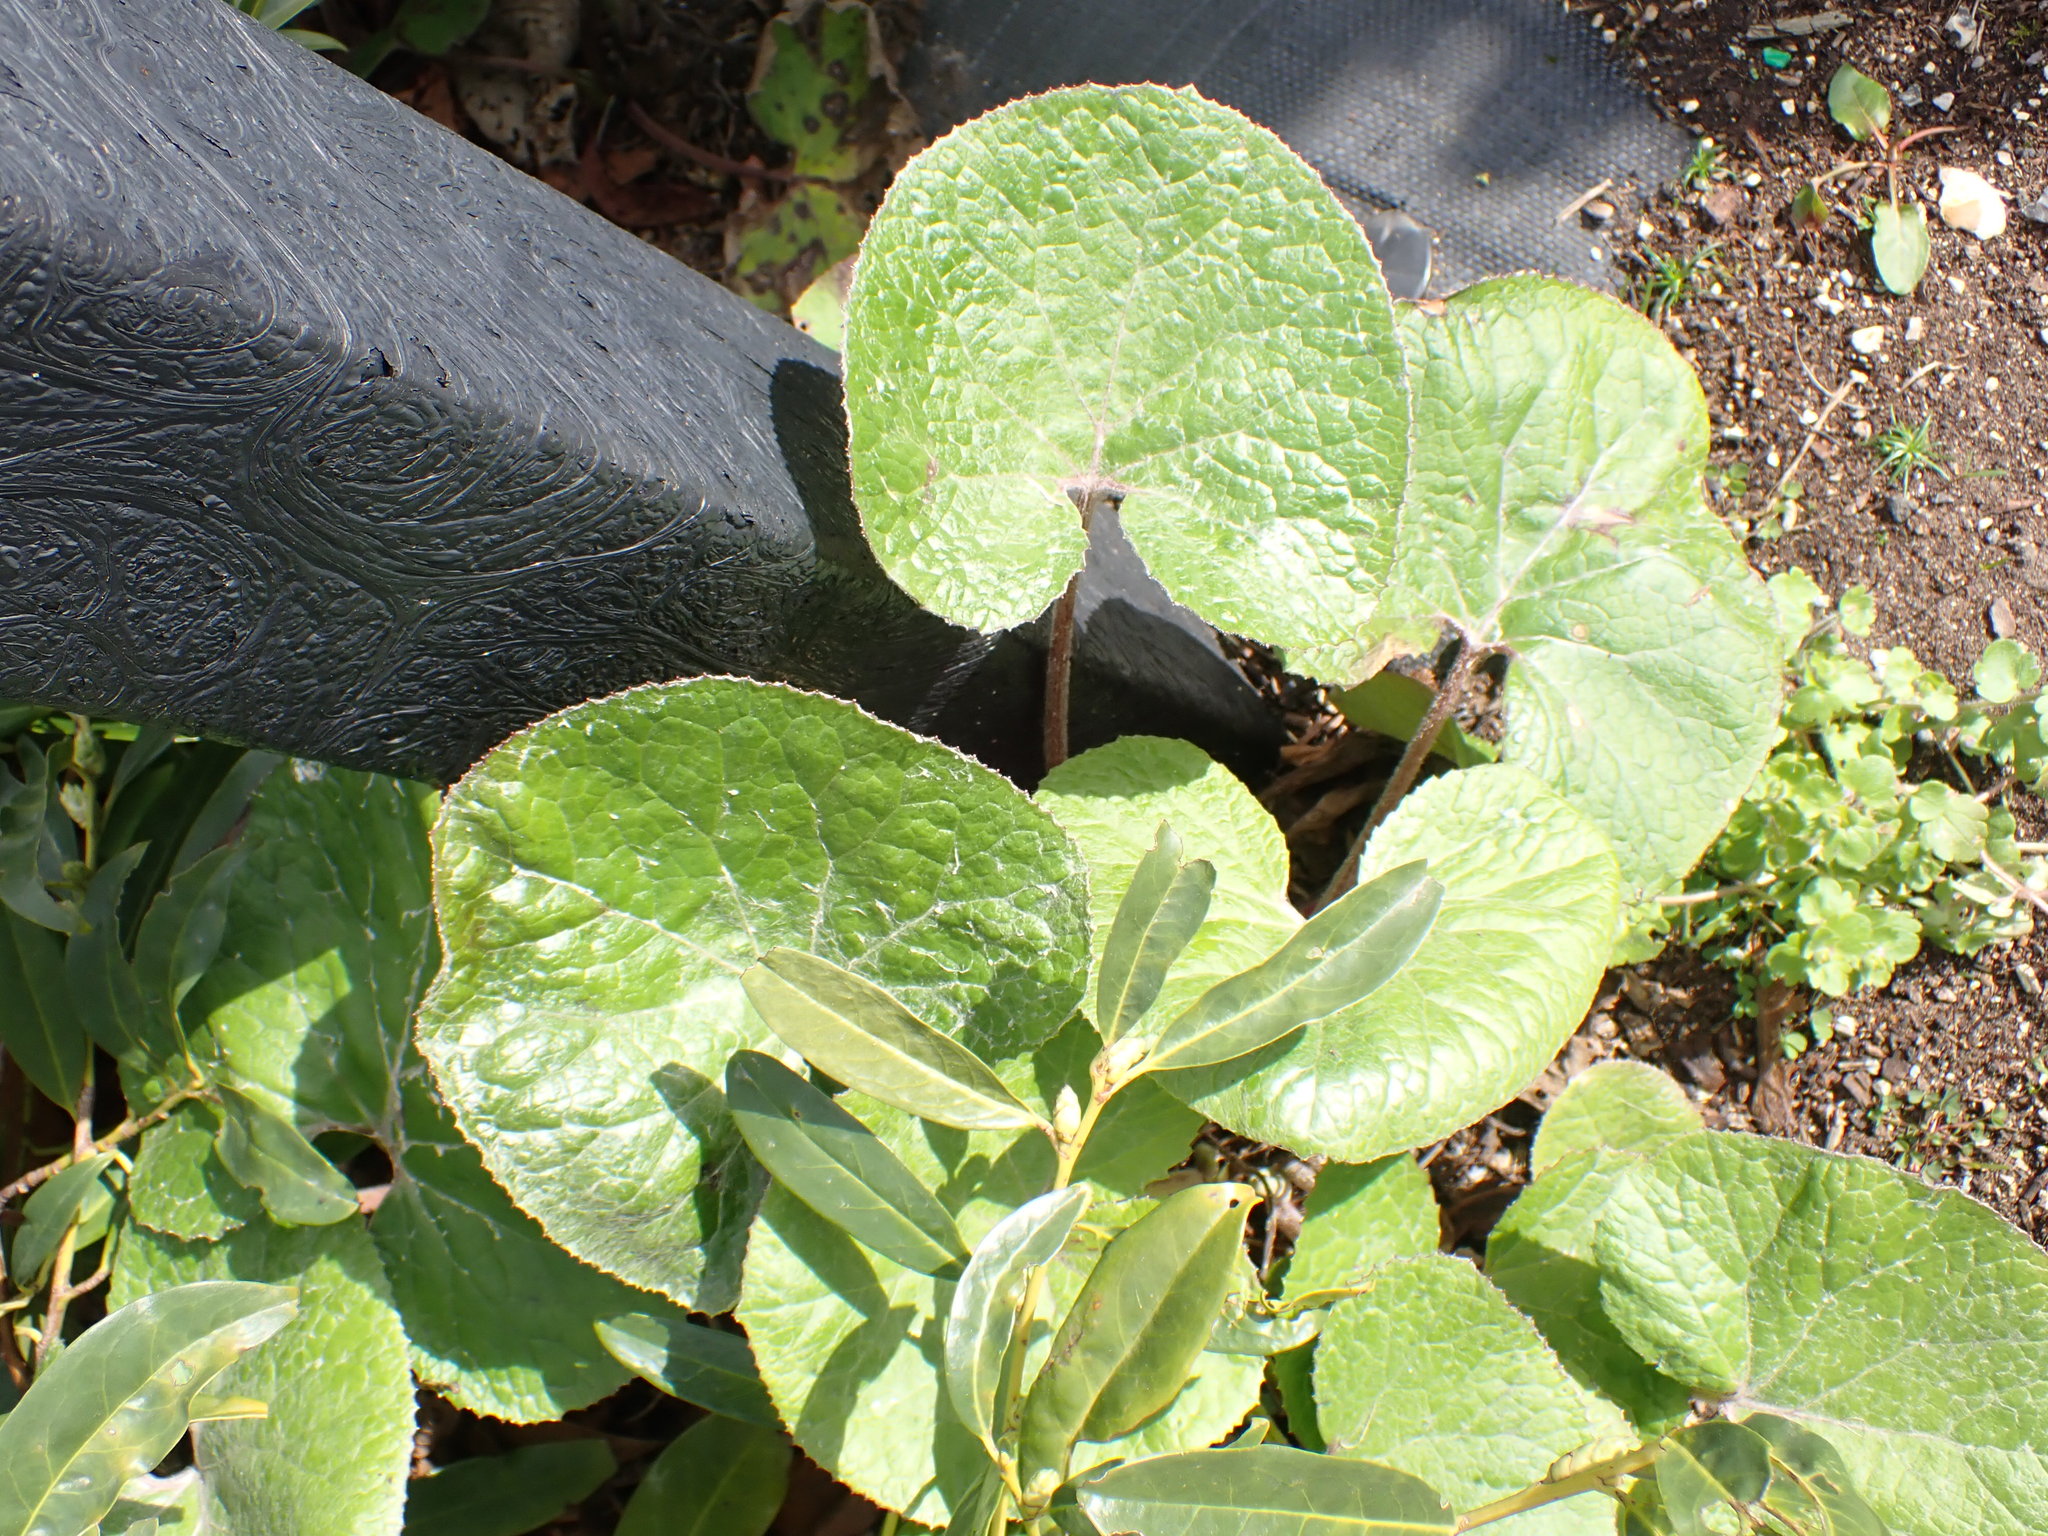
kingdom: Plantae
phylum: Tracheophyta
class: Magnoliopsida
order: Asterales
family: Asteraceae
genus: Petasites
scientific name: Petasites pyrenaicus
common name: Winter heliotrope
